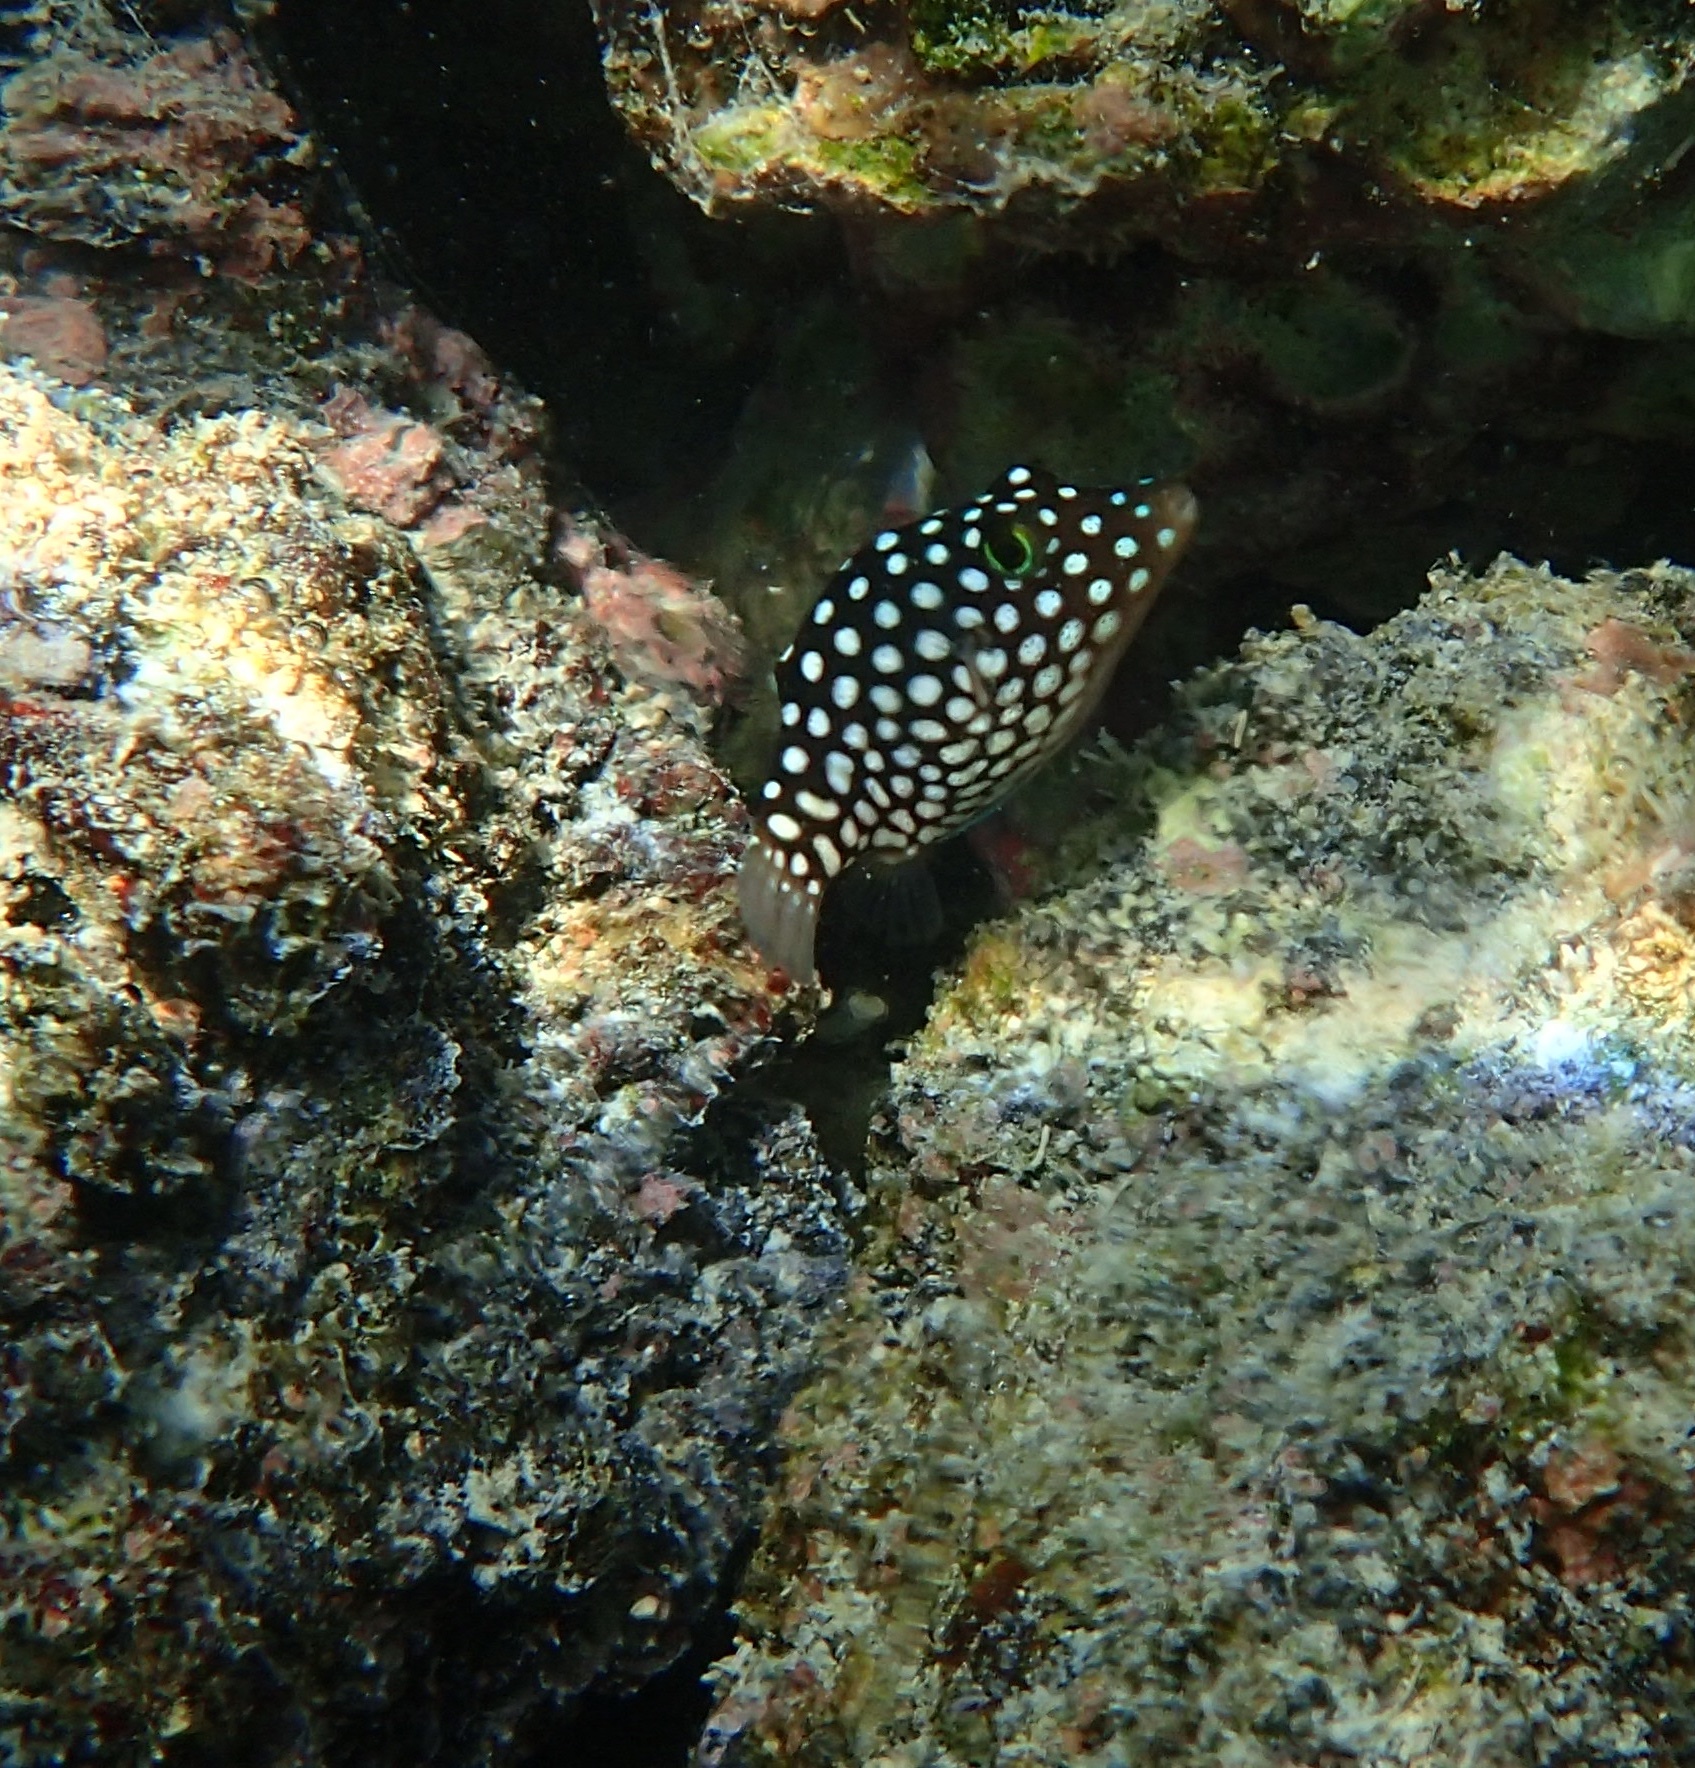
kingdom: Animalia
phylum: Chordata
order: Tetraodontiformes
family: Tetraodontidae
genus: Canthigaster
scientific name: Canthigaster jactator
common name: Hawaiian whitespotted toby
